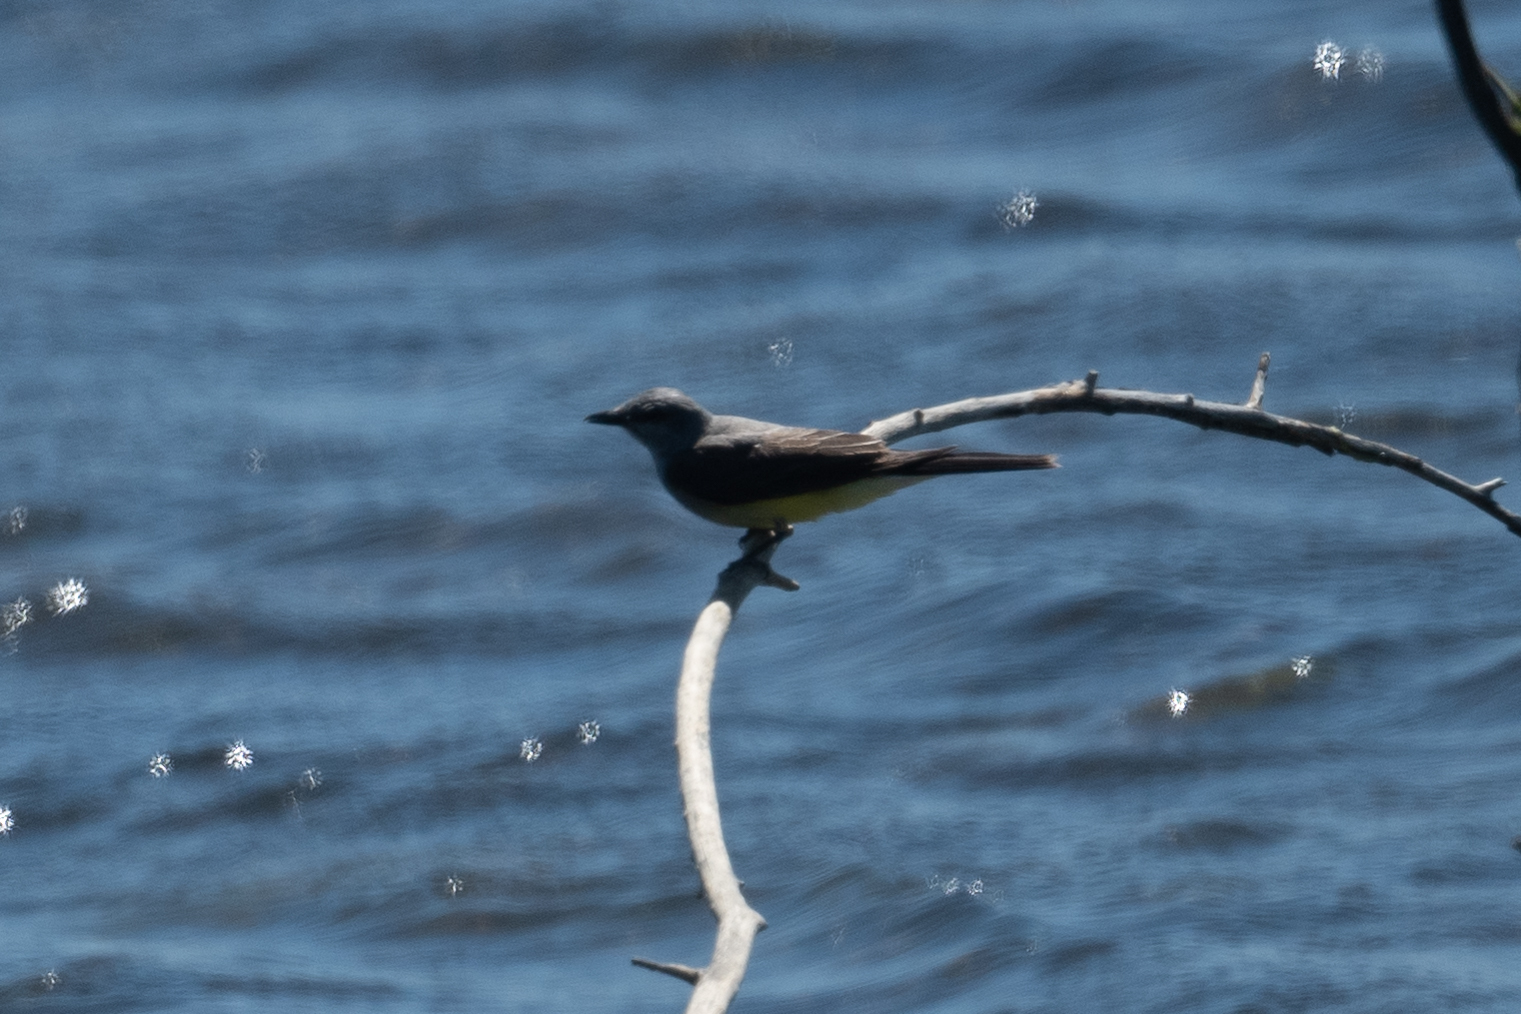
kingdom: Animalia
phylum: Chordata
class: Aves
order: Passeriformes
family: Tyrannidae
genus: Tyrannus
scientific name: Tyrannus verticalis
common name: Western kingbird
